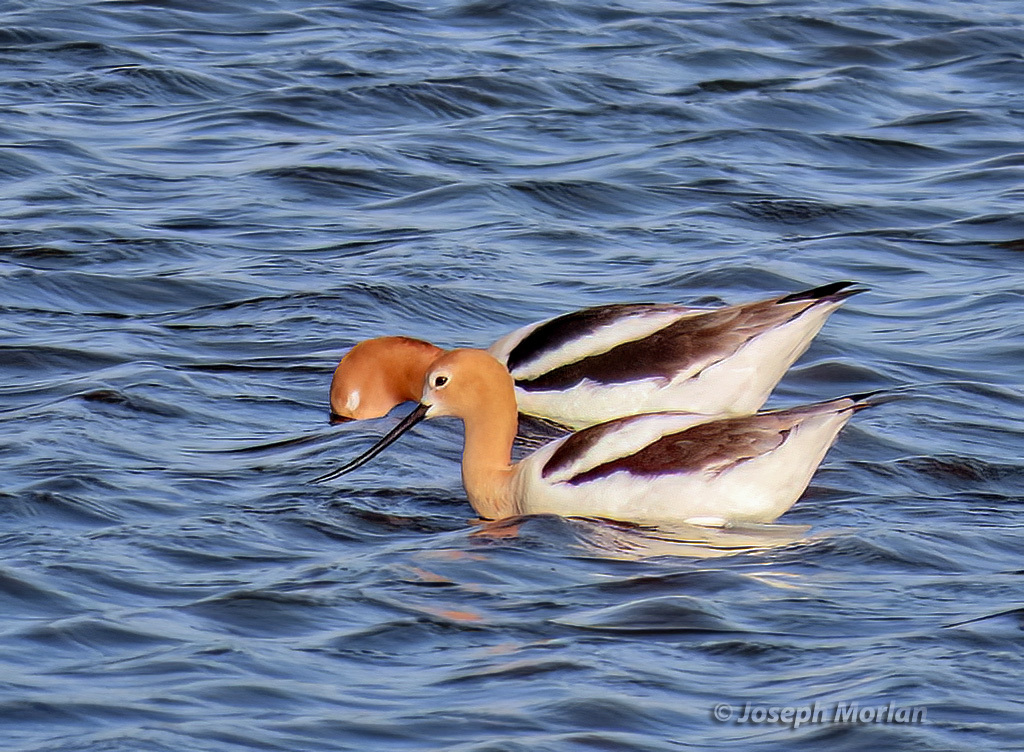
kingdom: Animalia
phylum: Chordata
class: Aves
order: Charadriiformes
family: Recurvirostridae
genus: Recurvirostra
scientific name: Recurvirostra americana
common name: American avocet
